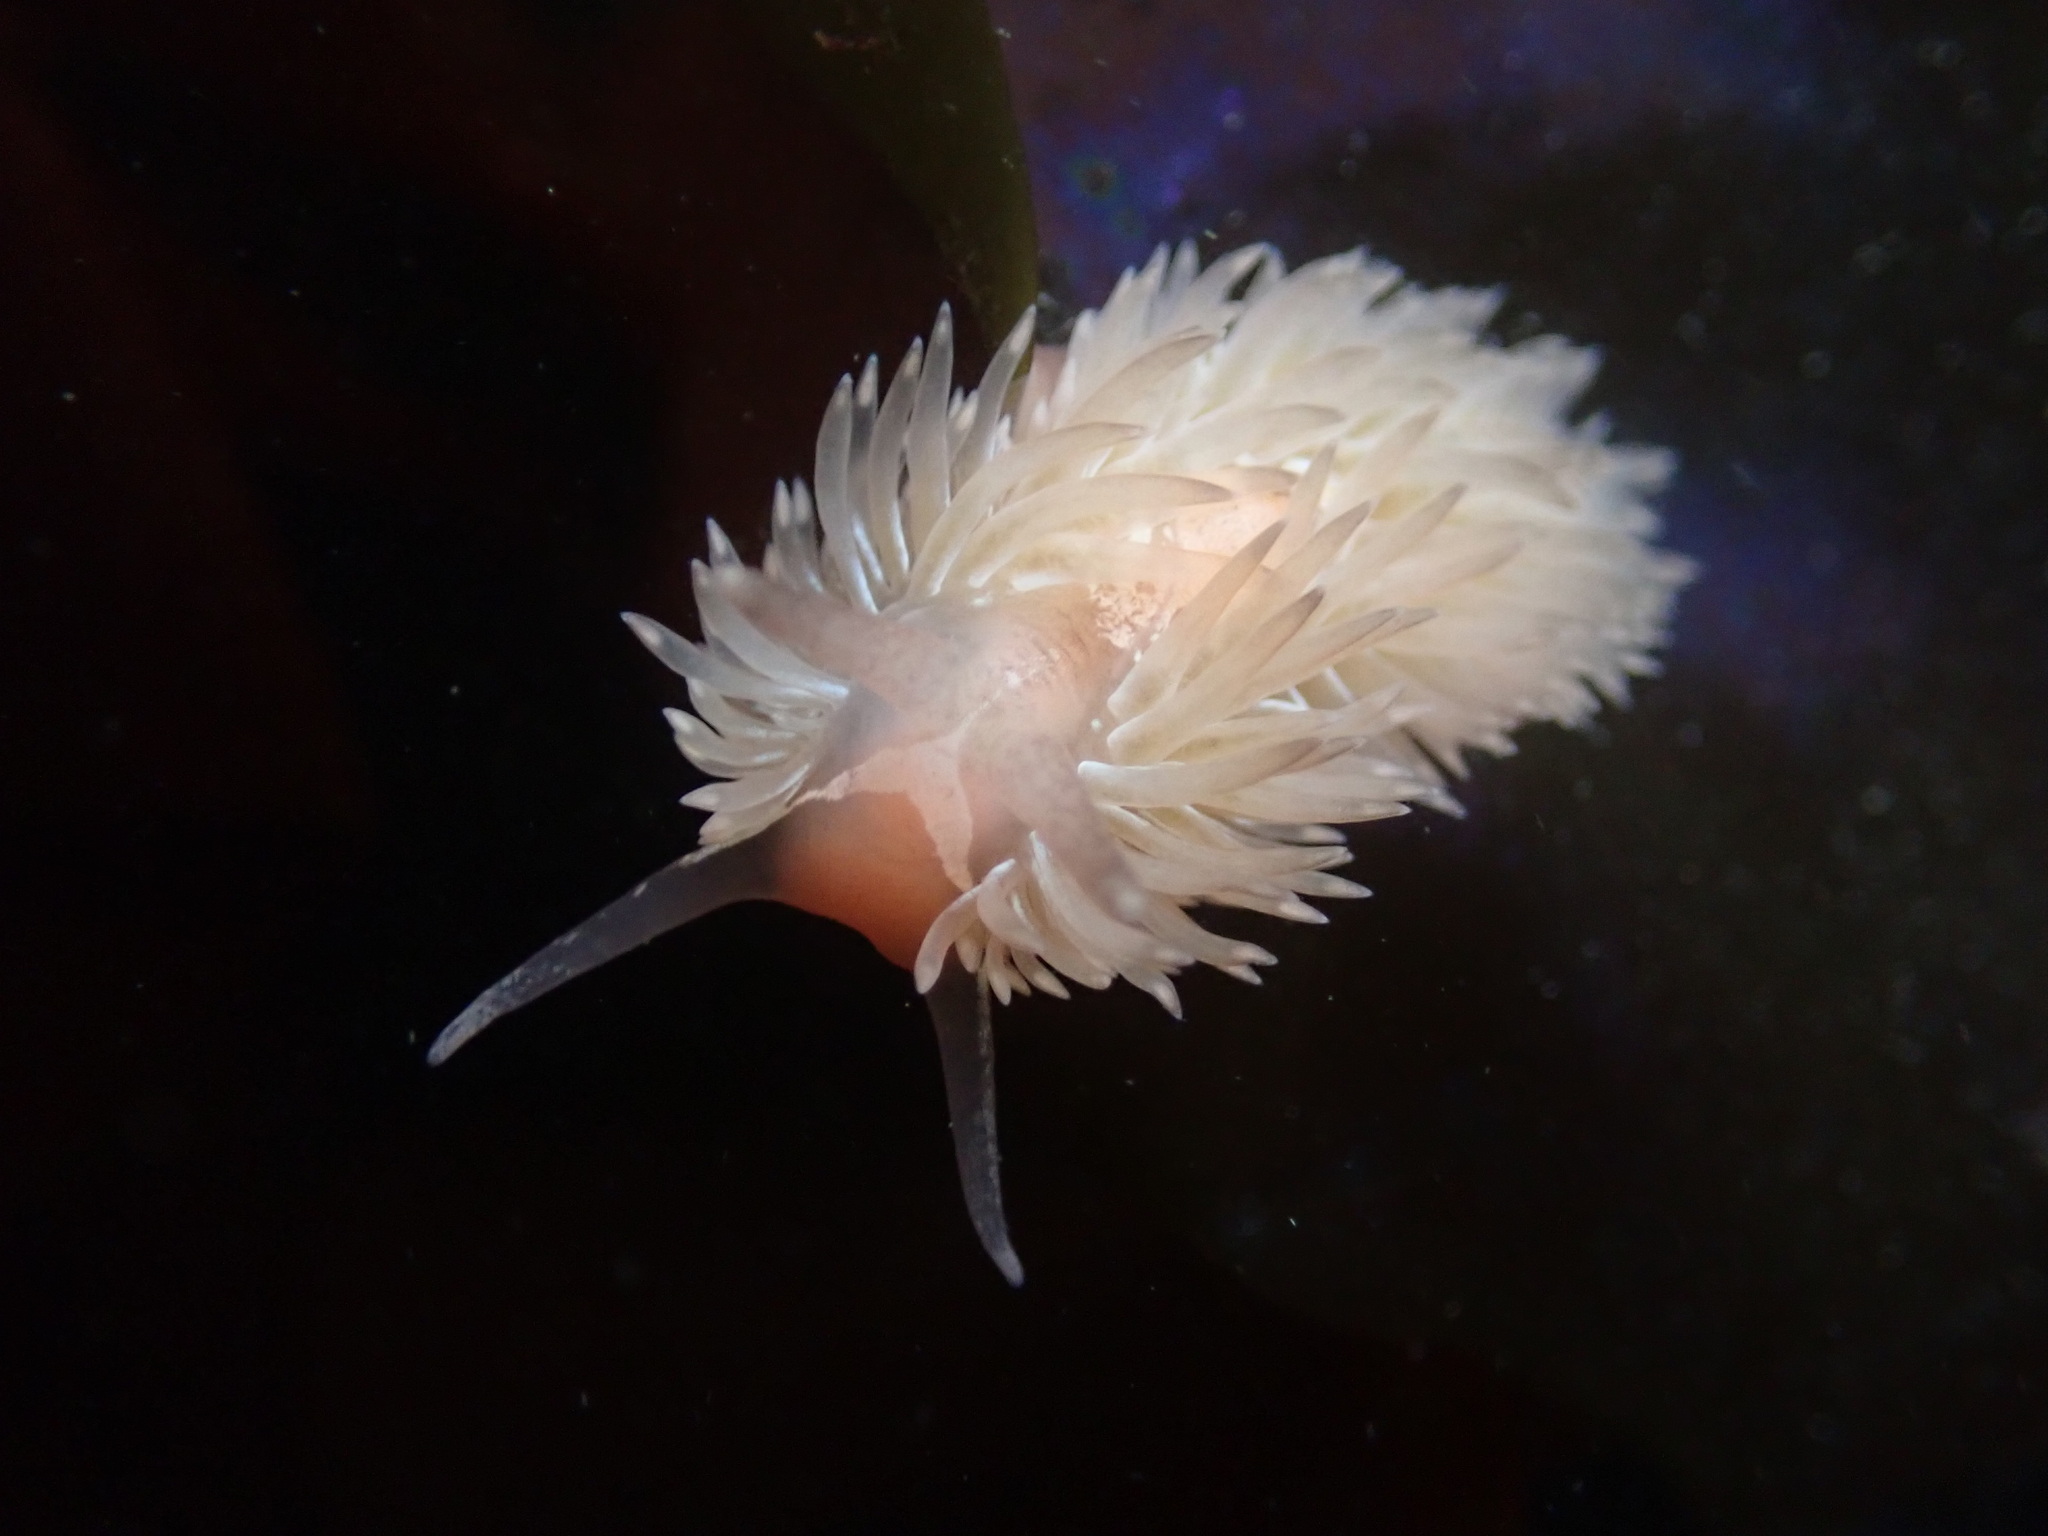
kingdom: Animalia
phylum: Mollusca
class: Gastropoda
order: Nudibranchia
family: Aeolidiidae
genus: Aeolidia
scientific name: Aeolidia loui
